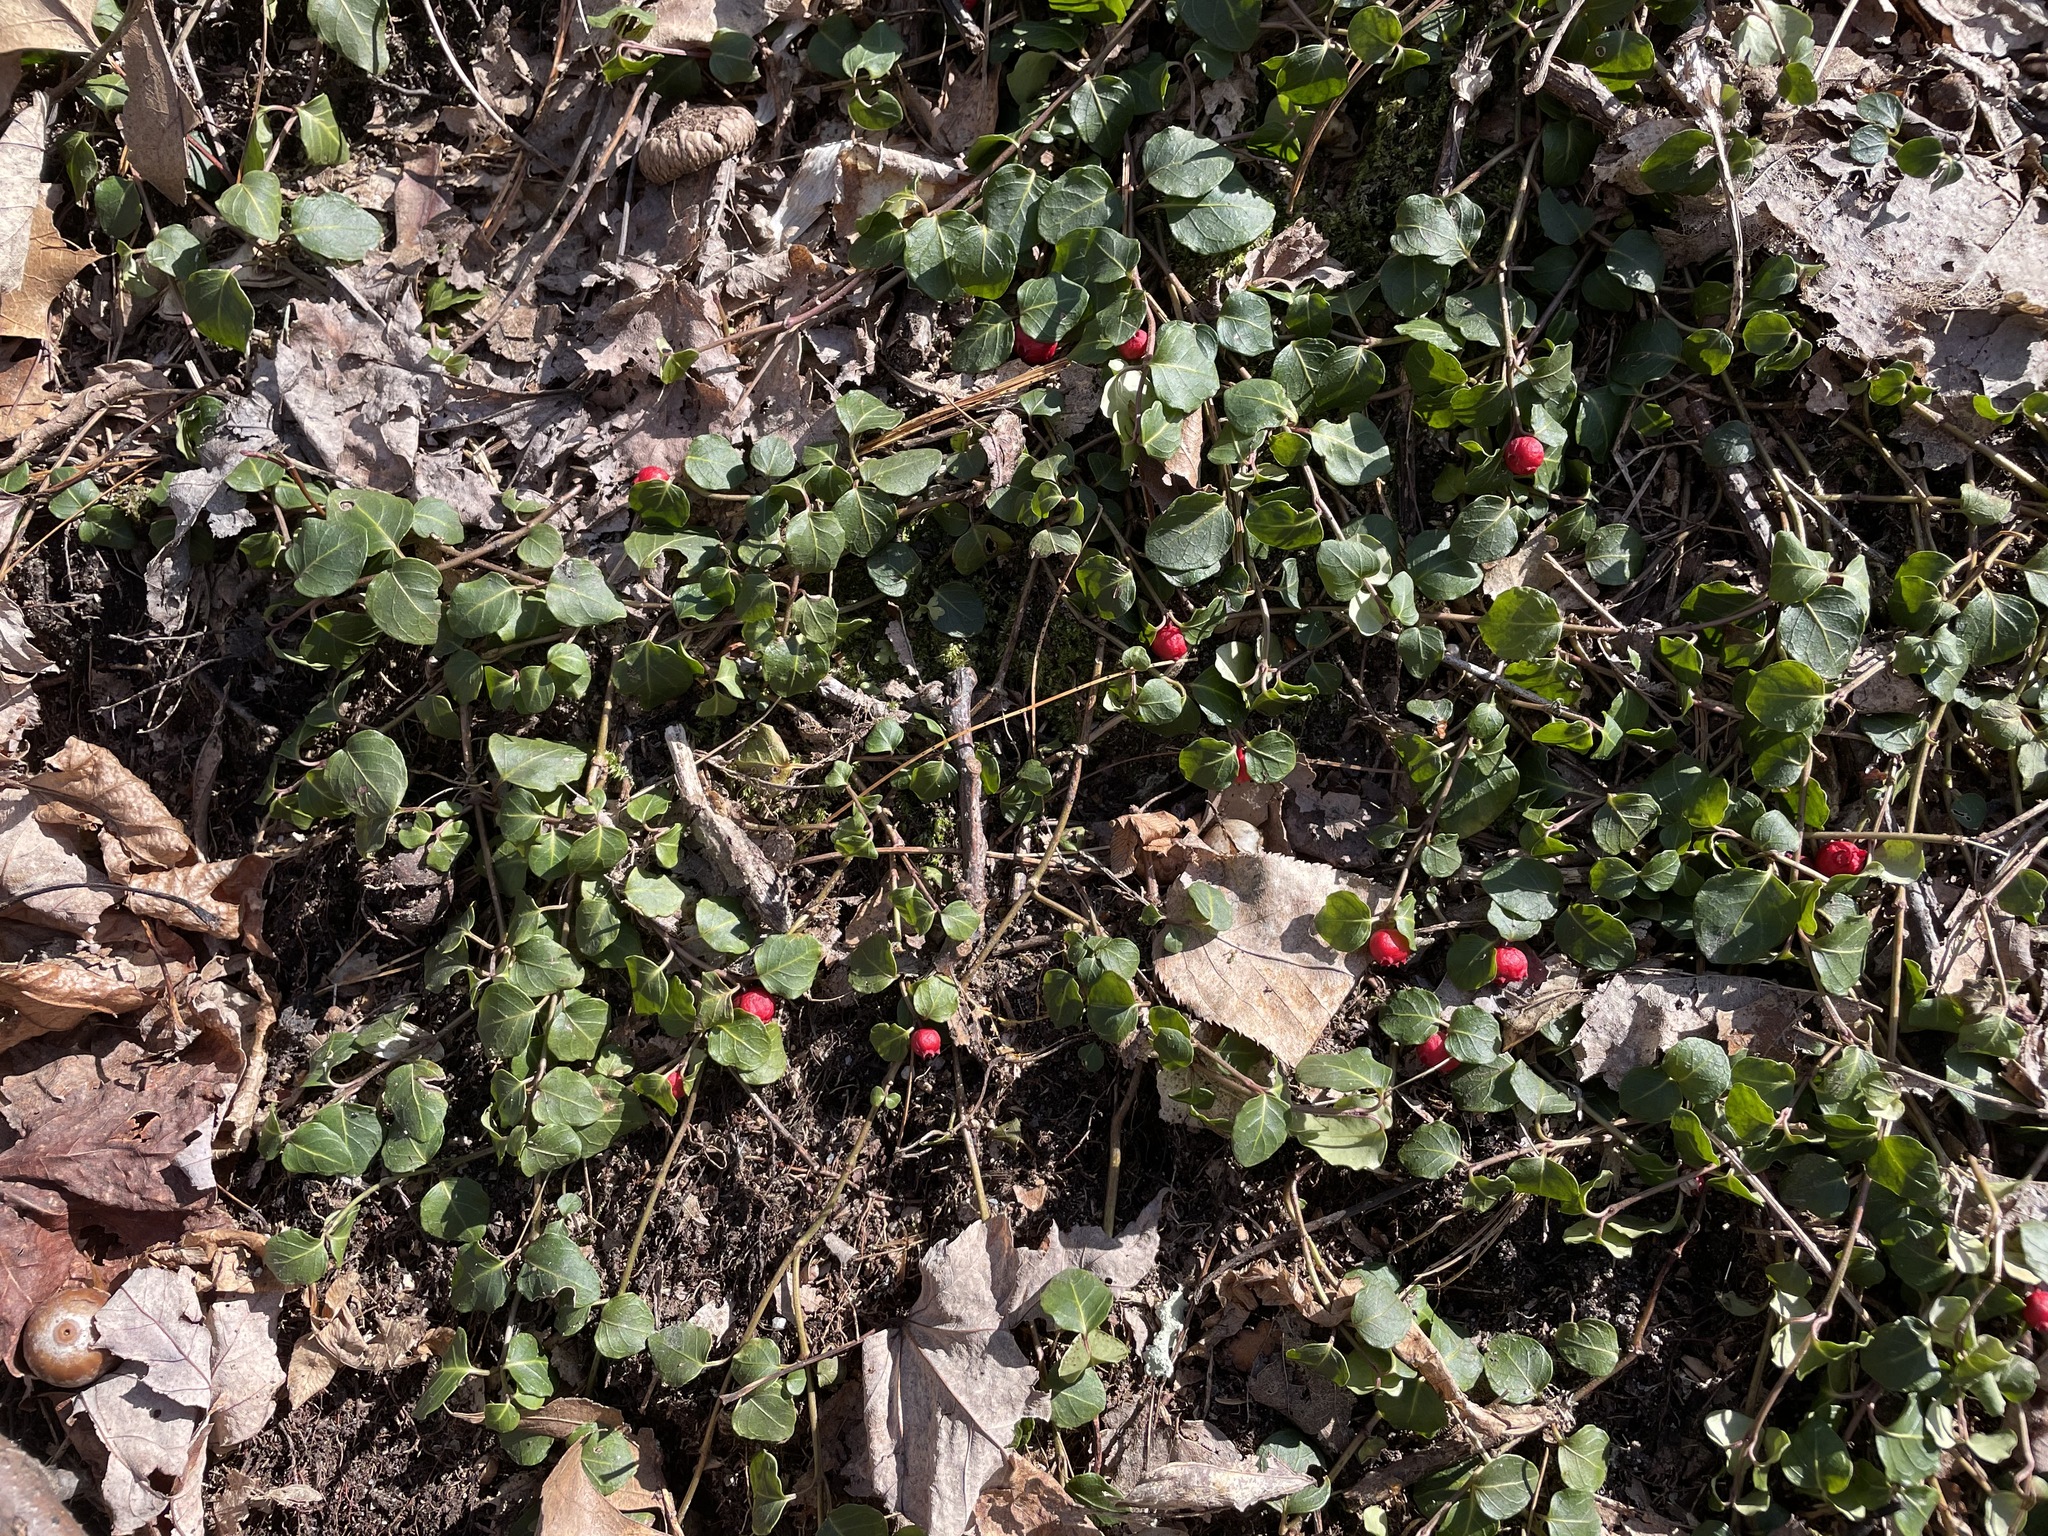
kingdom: Plantae
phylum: Tracheophyta
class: Magnoliopsida
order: Gentianales
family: Rubiaceae
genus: Mitchella
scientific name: Mitchella repens
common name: Partridge-berry
